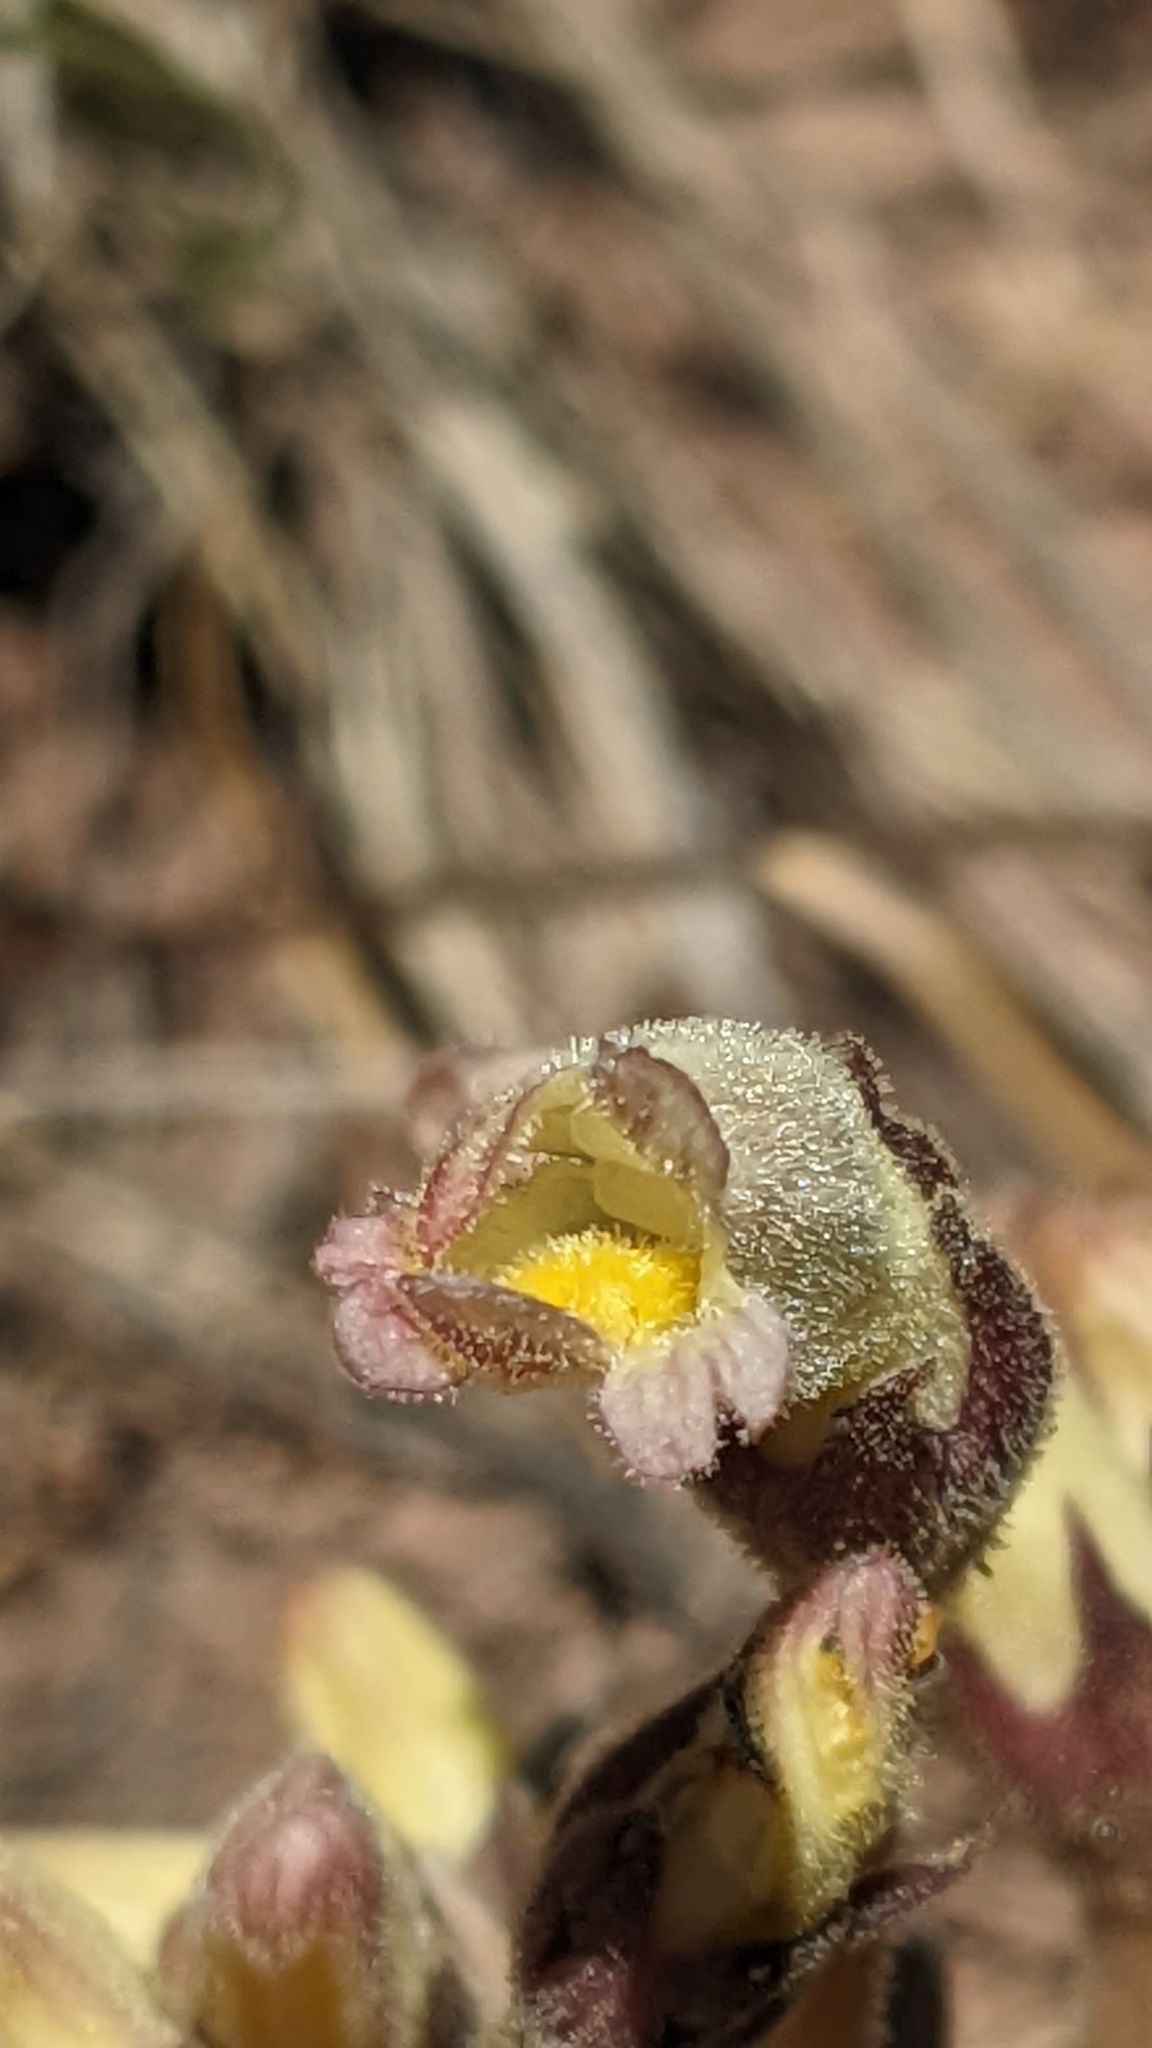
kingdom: Plantae
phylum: Tracheophyta
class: Magnoliopsida
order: Lamiales
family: Orobanchaceae
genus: Aphyllon
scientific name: Aphyllon fasciculatum
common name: Clustered broomrape
